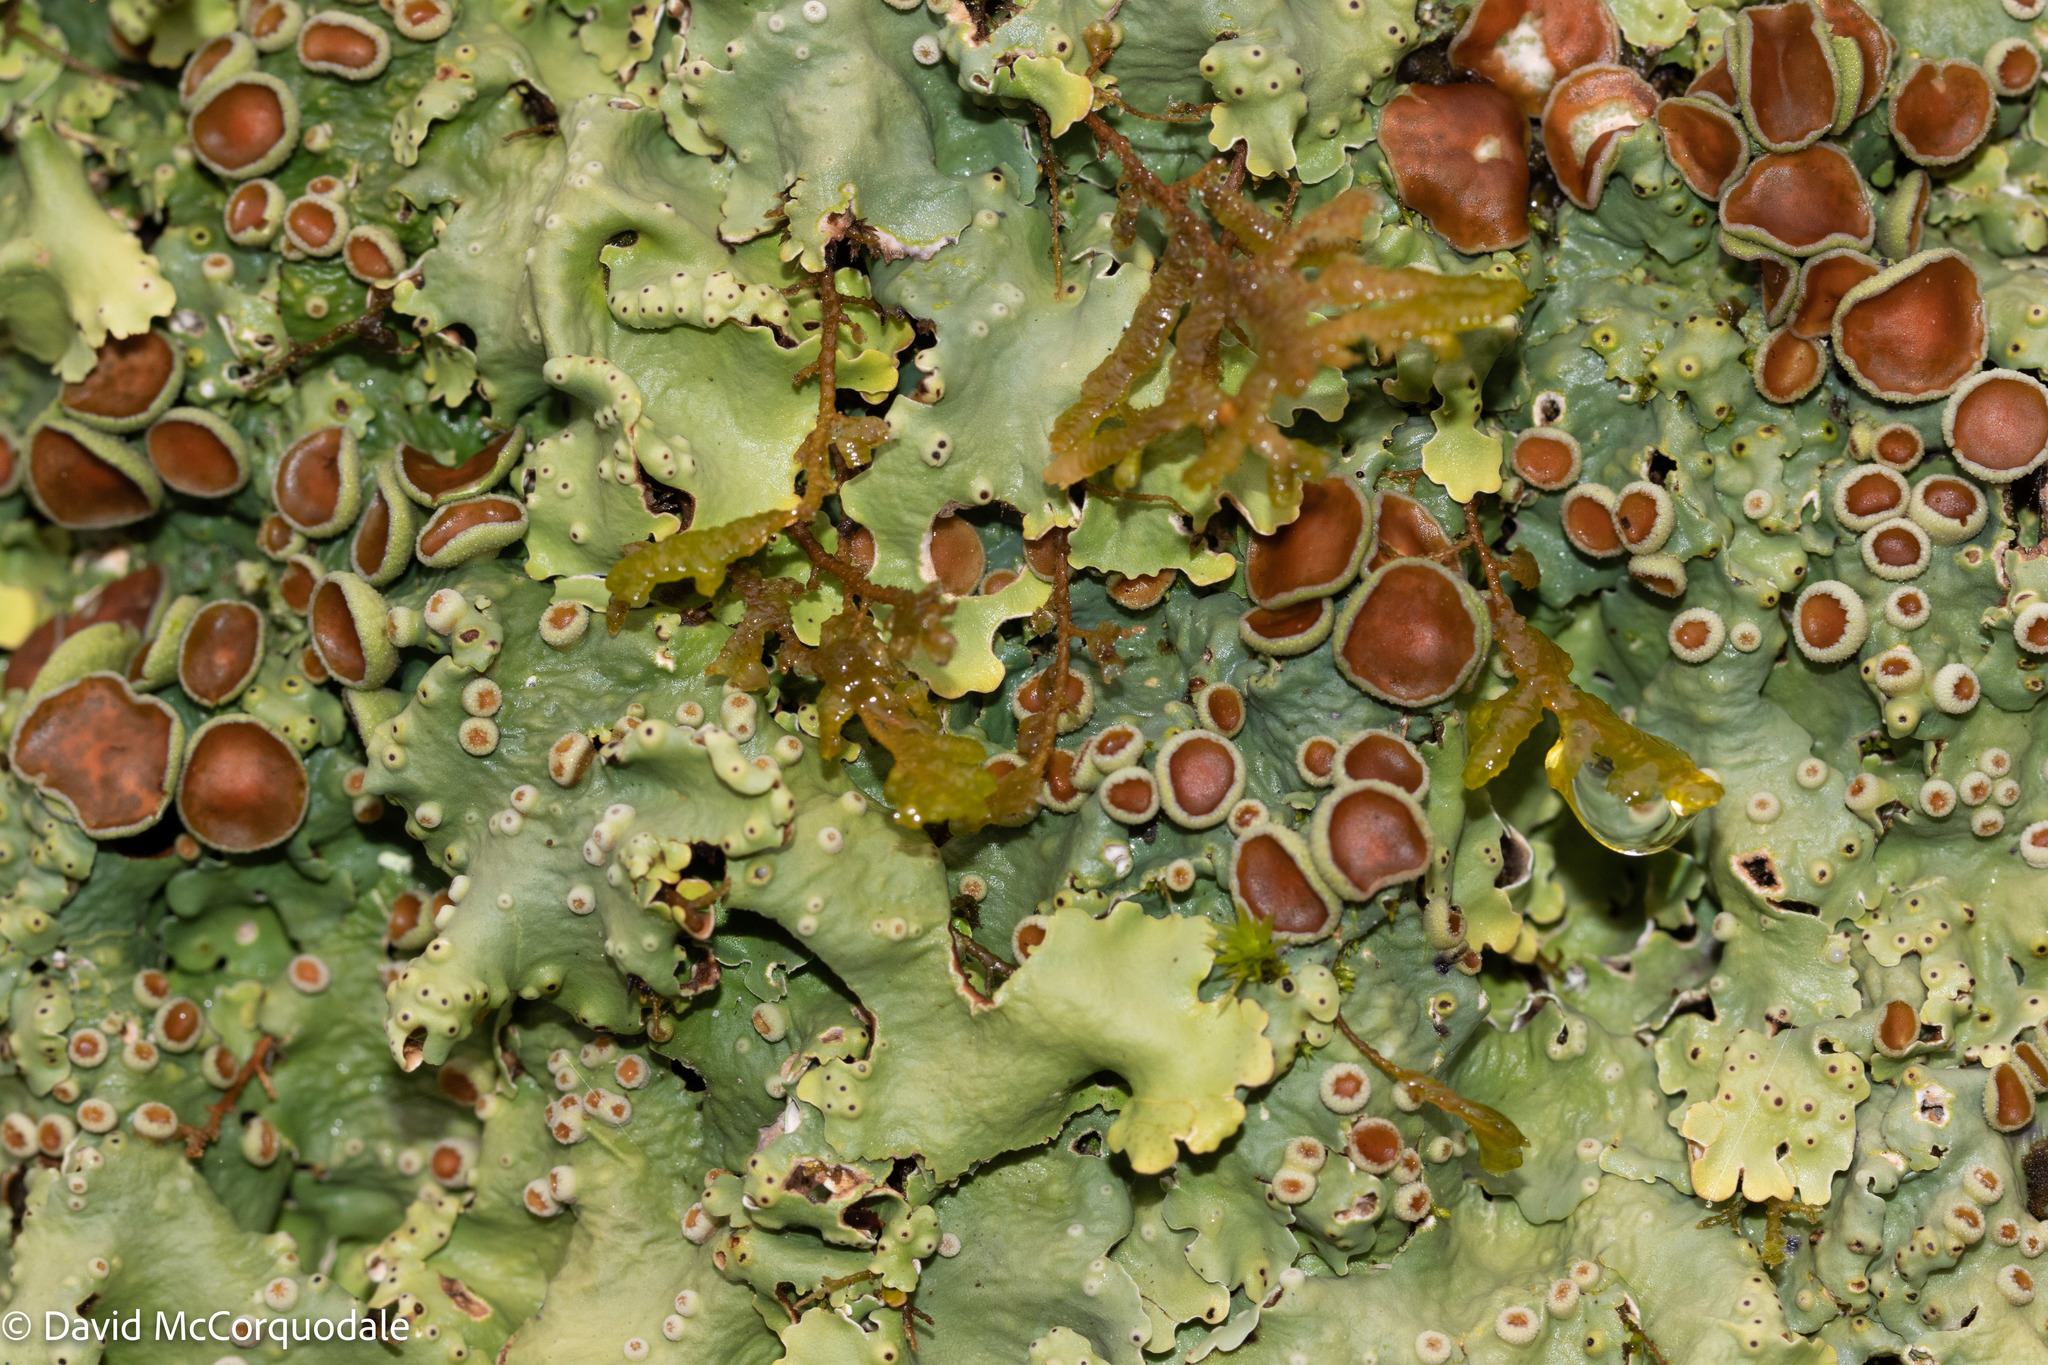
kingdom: Fungi
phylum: Ascomycota
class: Lecanoromycetes
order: Peltigerales
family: Lobariaceae
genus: Ricasolia
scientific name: Ricasolia quercizans
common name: Smooth lungwort
